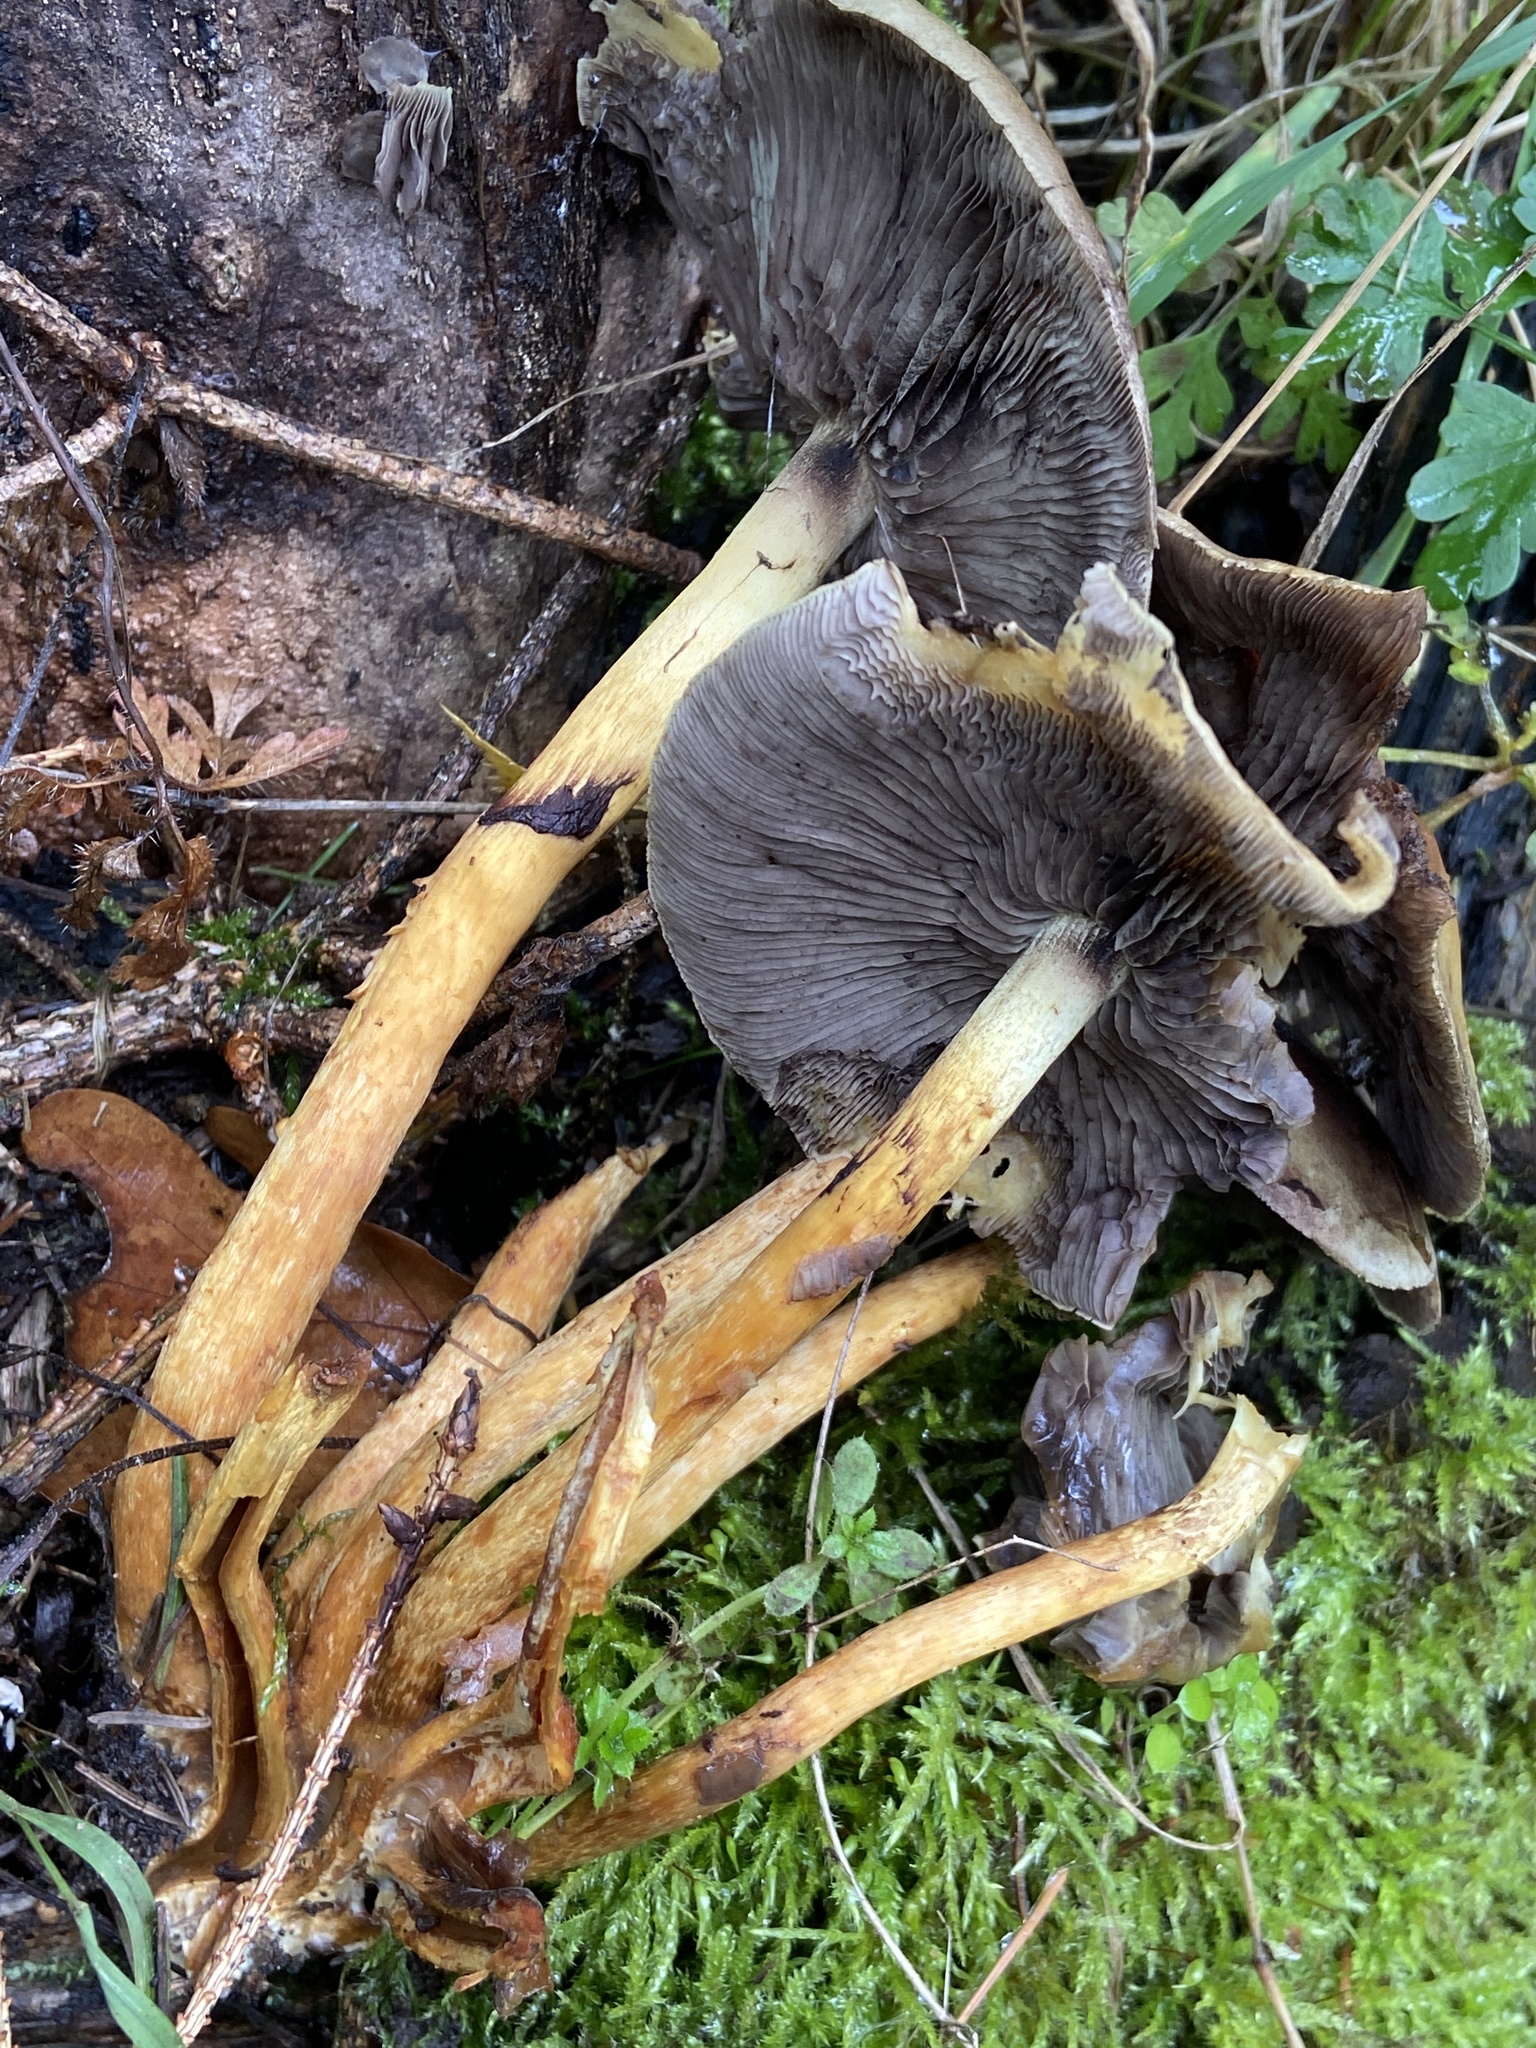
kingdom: Fungi
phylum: Basidiomycota
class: Agaricomycetes
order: Agaricales
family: Strophariaceae
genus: Hypholoma
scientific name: Hypholoma fasciculare
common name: Sulphur tuft
